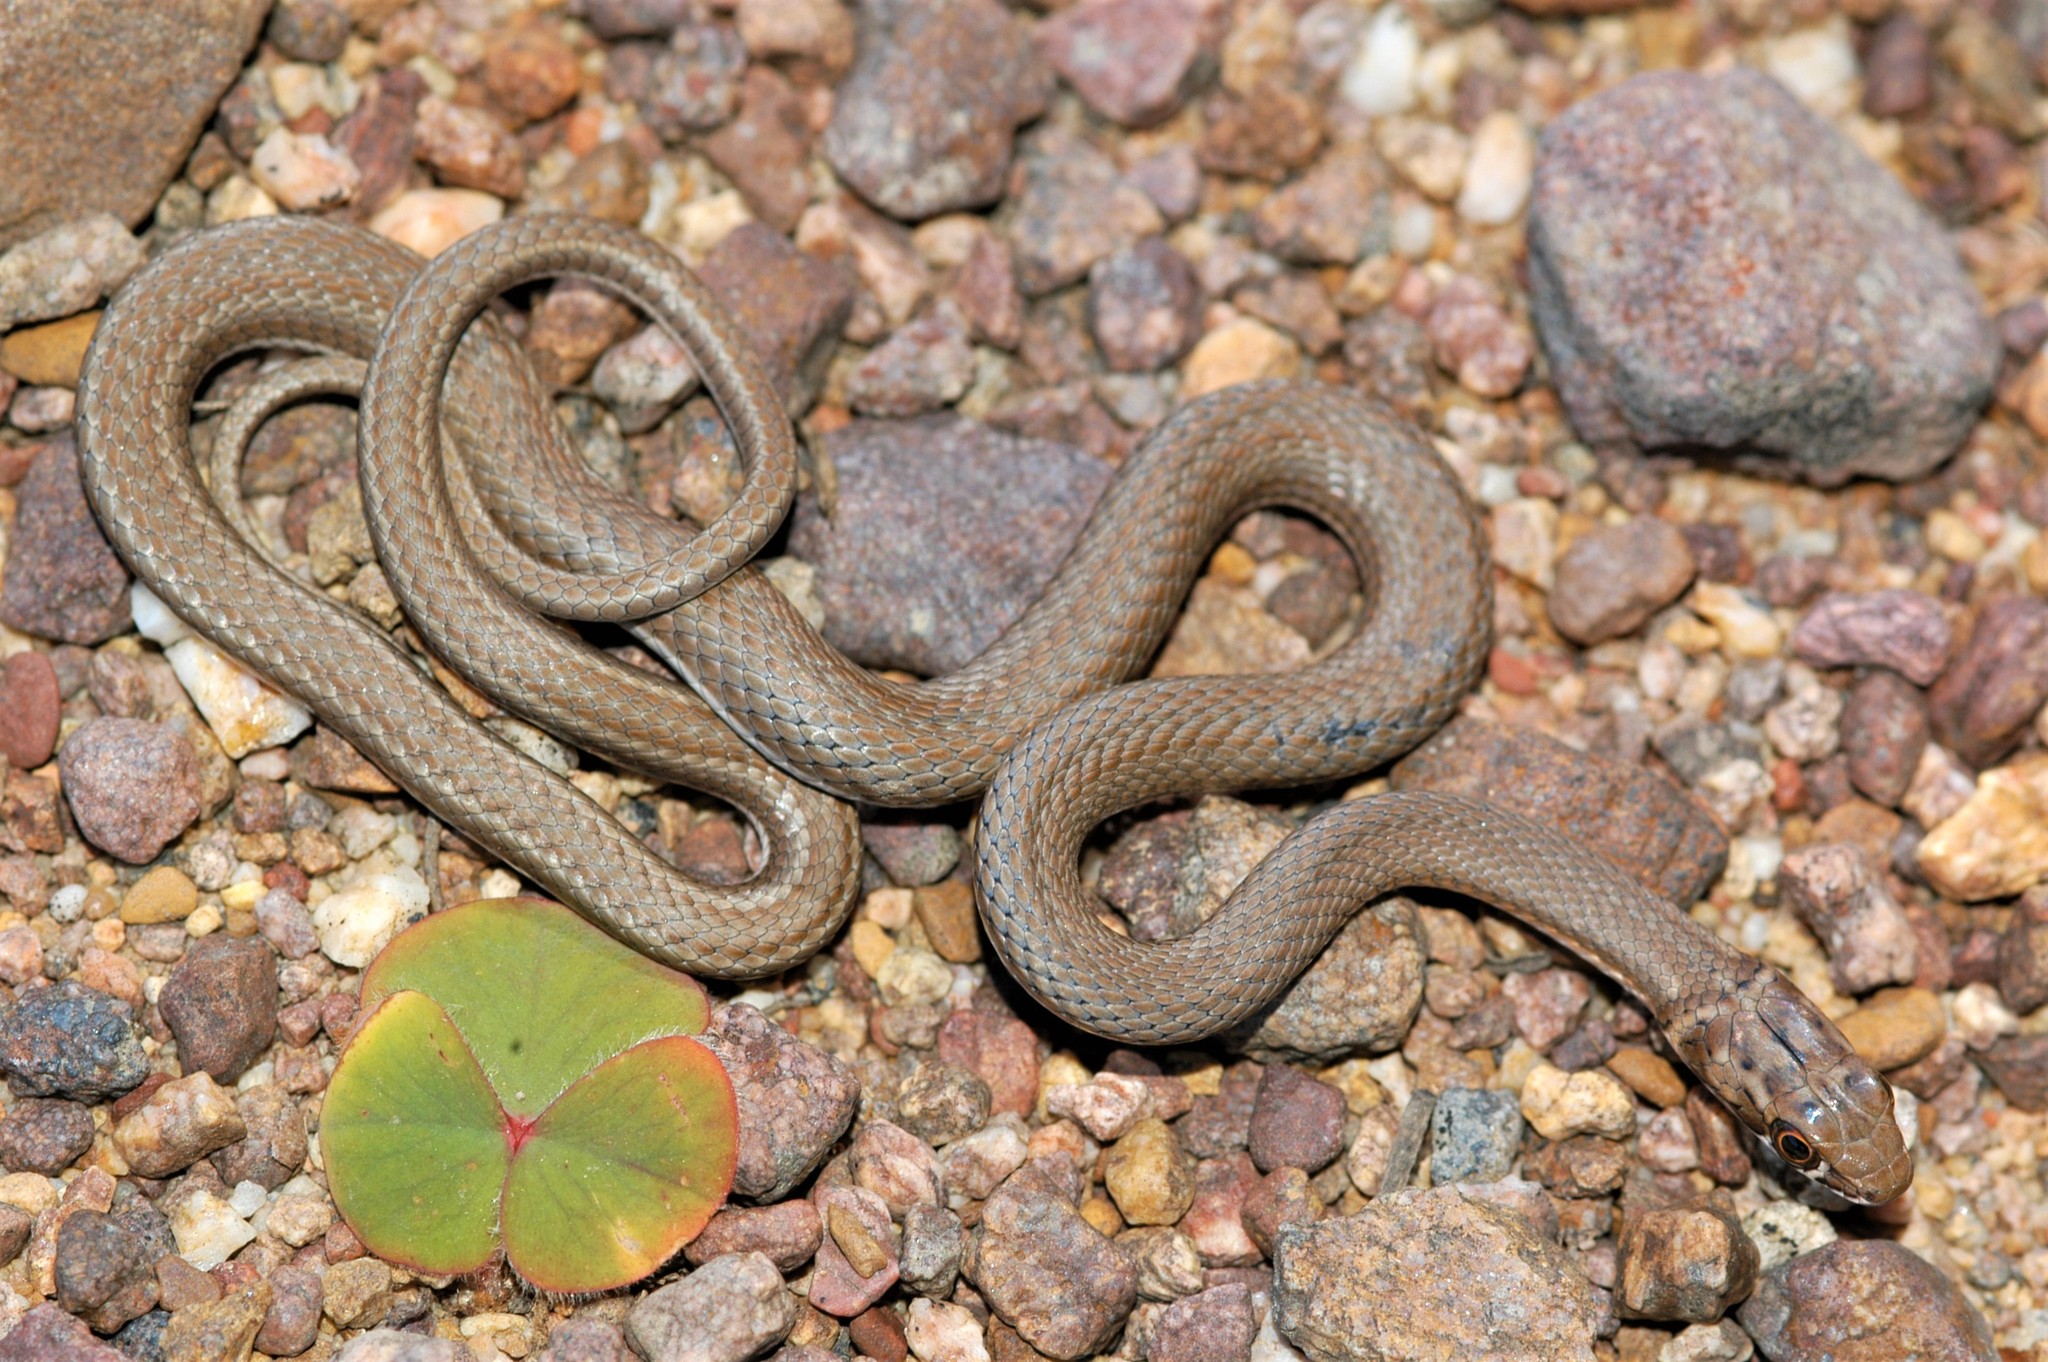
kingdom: Animalia
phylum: Chordata
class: Squamata
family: Psammophiidae
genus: Psammophis
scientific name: Psammophis notostictus
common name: Karoo sand snake
